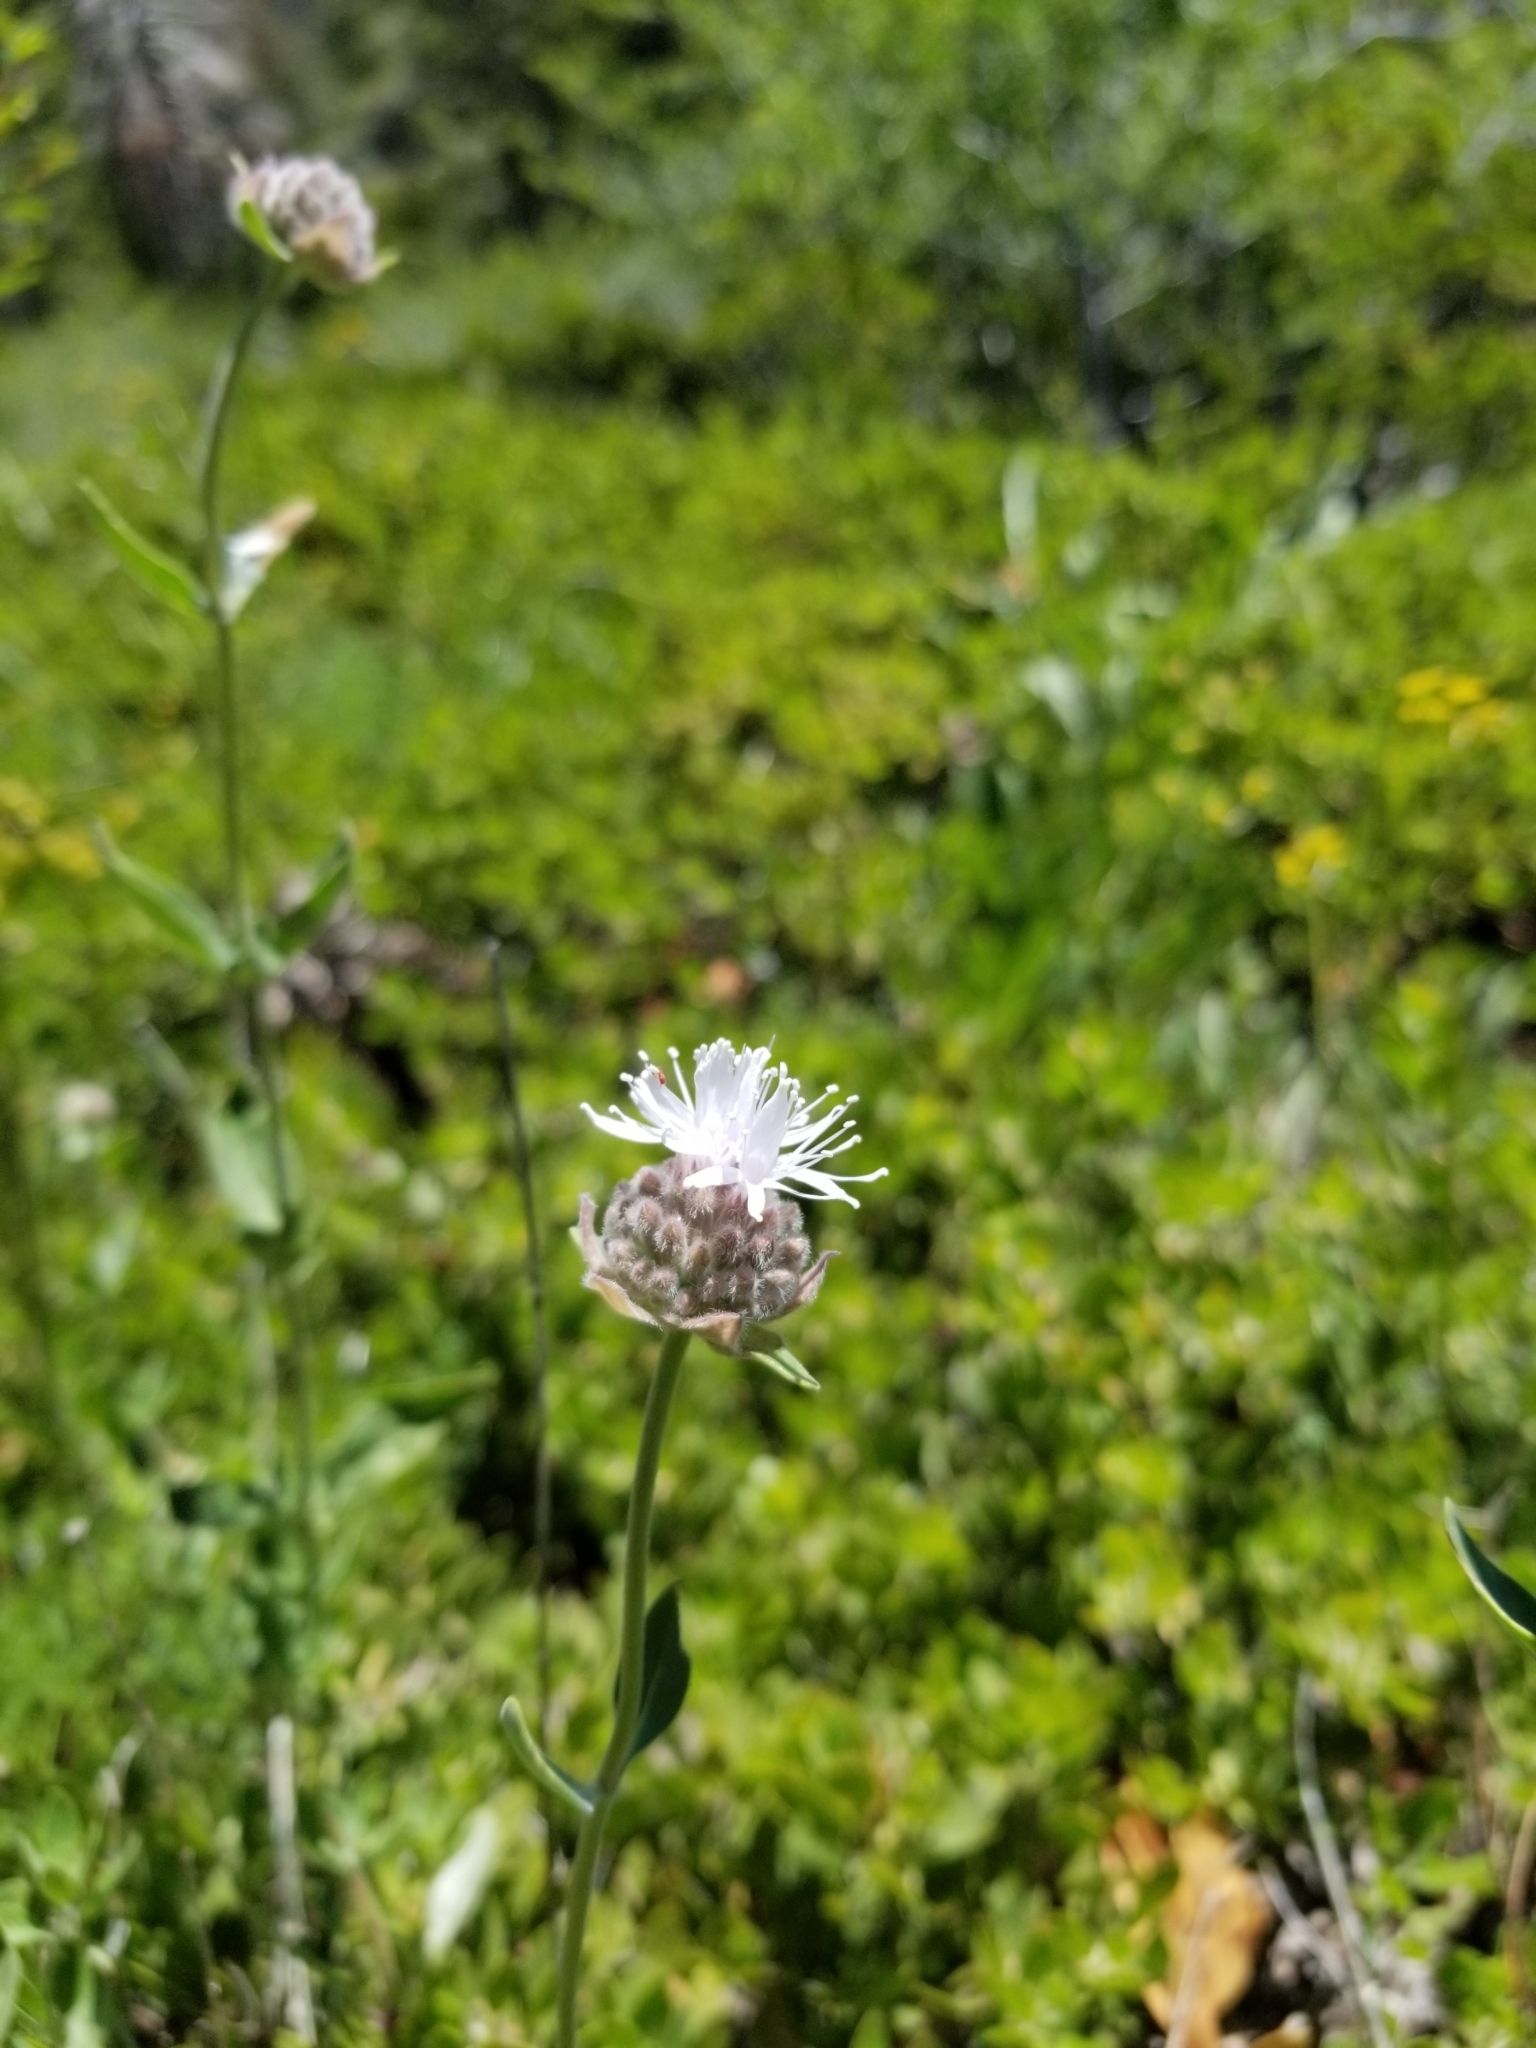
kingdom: Plantae
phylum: Tracheophyta
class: Magnoliopsida
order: Lamiales
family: Lamiaceae
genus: Monardella
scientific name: Monardella odoratissima
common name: Pacific monardella
